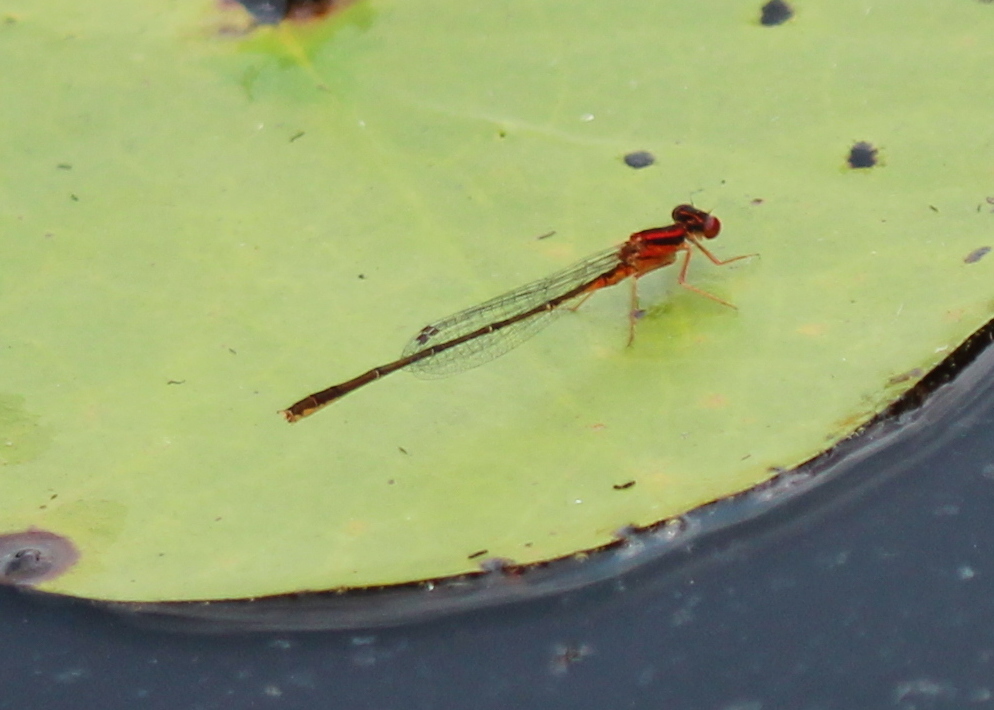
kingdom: Animalia
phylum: Arthropoda
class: Insecta
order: Odonata
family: Coenagrionidae
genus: Enallagma
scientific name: Enallagma pictum
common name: Scarlet bluet
